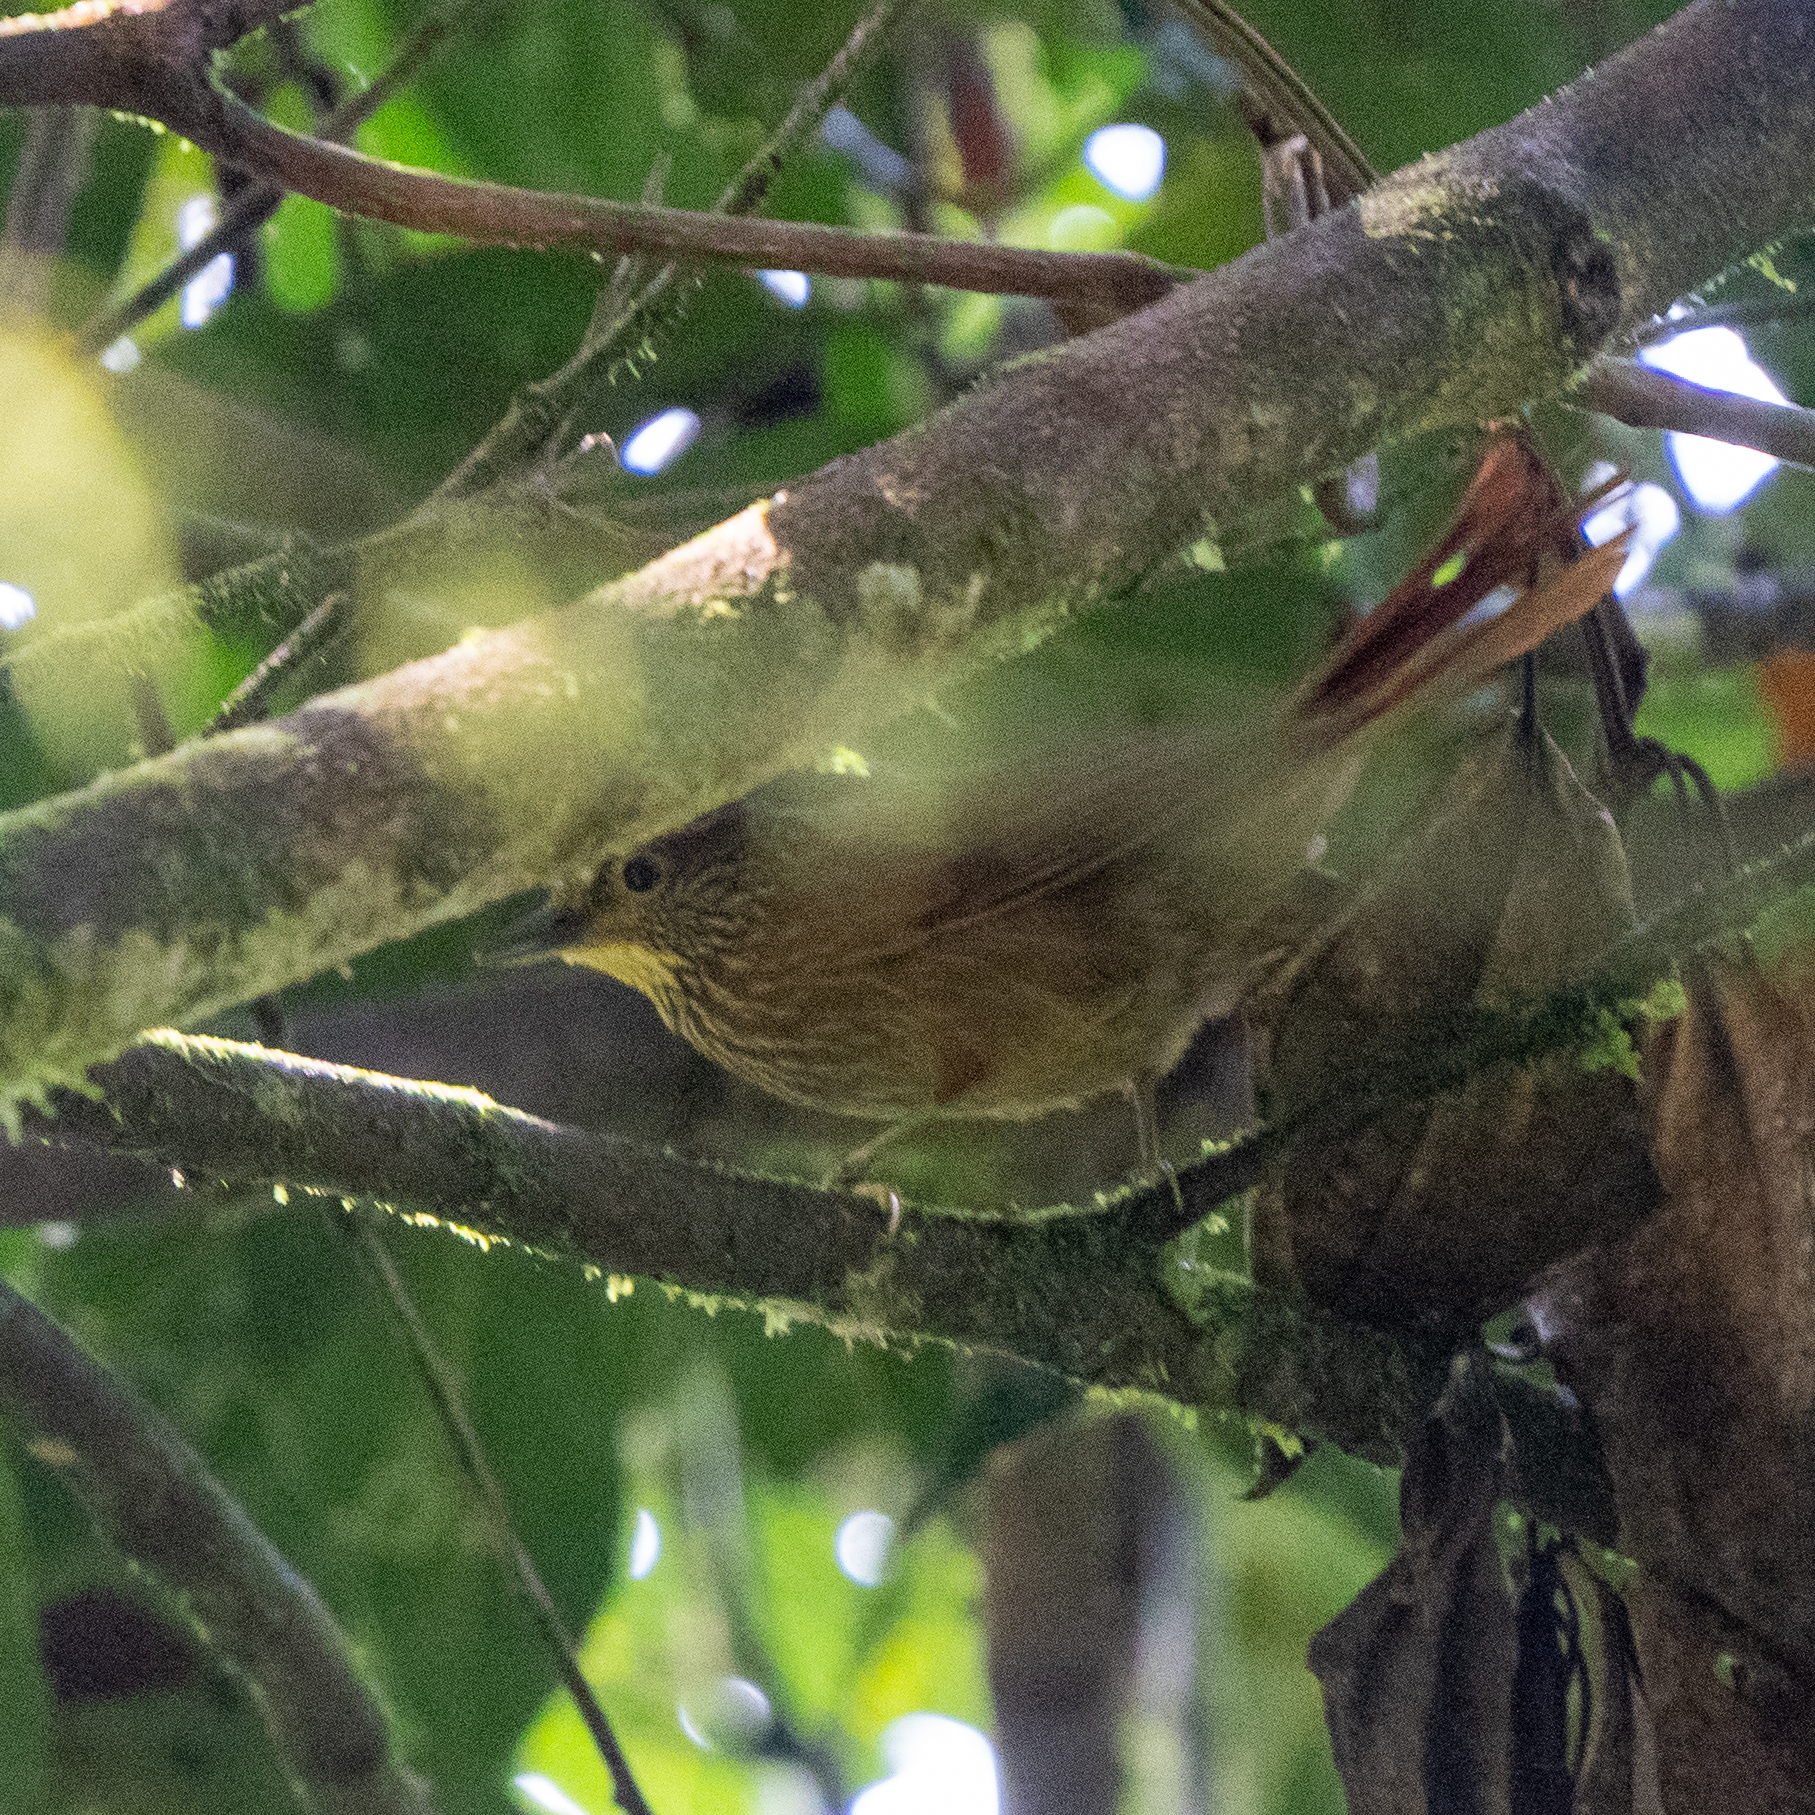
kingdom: Animalia
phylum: Chordata
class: Aves
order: Passeriformes
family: Furnariidae
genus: Syndactyla
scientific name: Syndactyla subalaris
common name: Lineated foliage-gleaner
